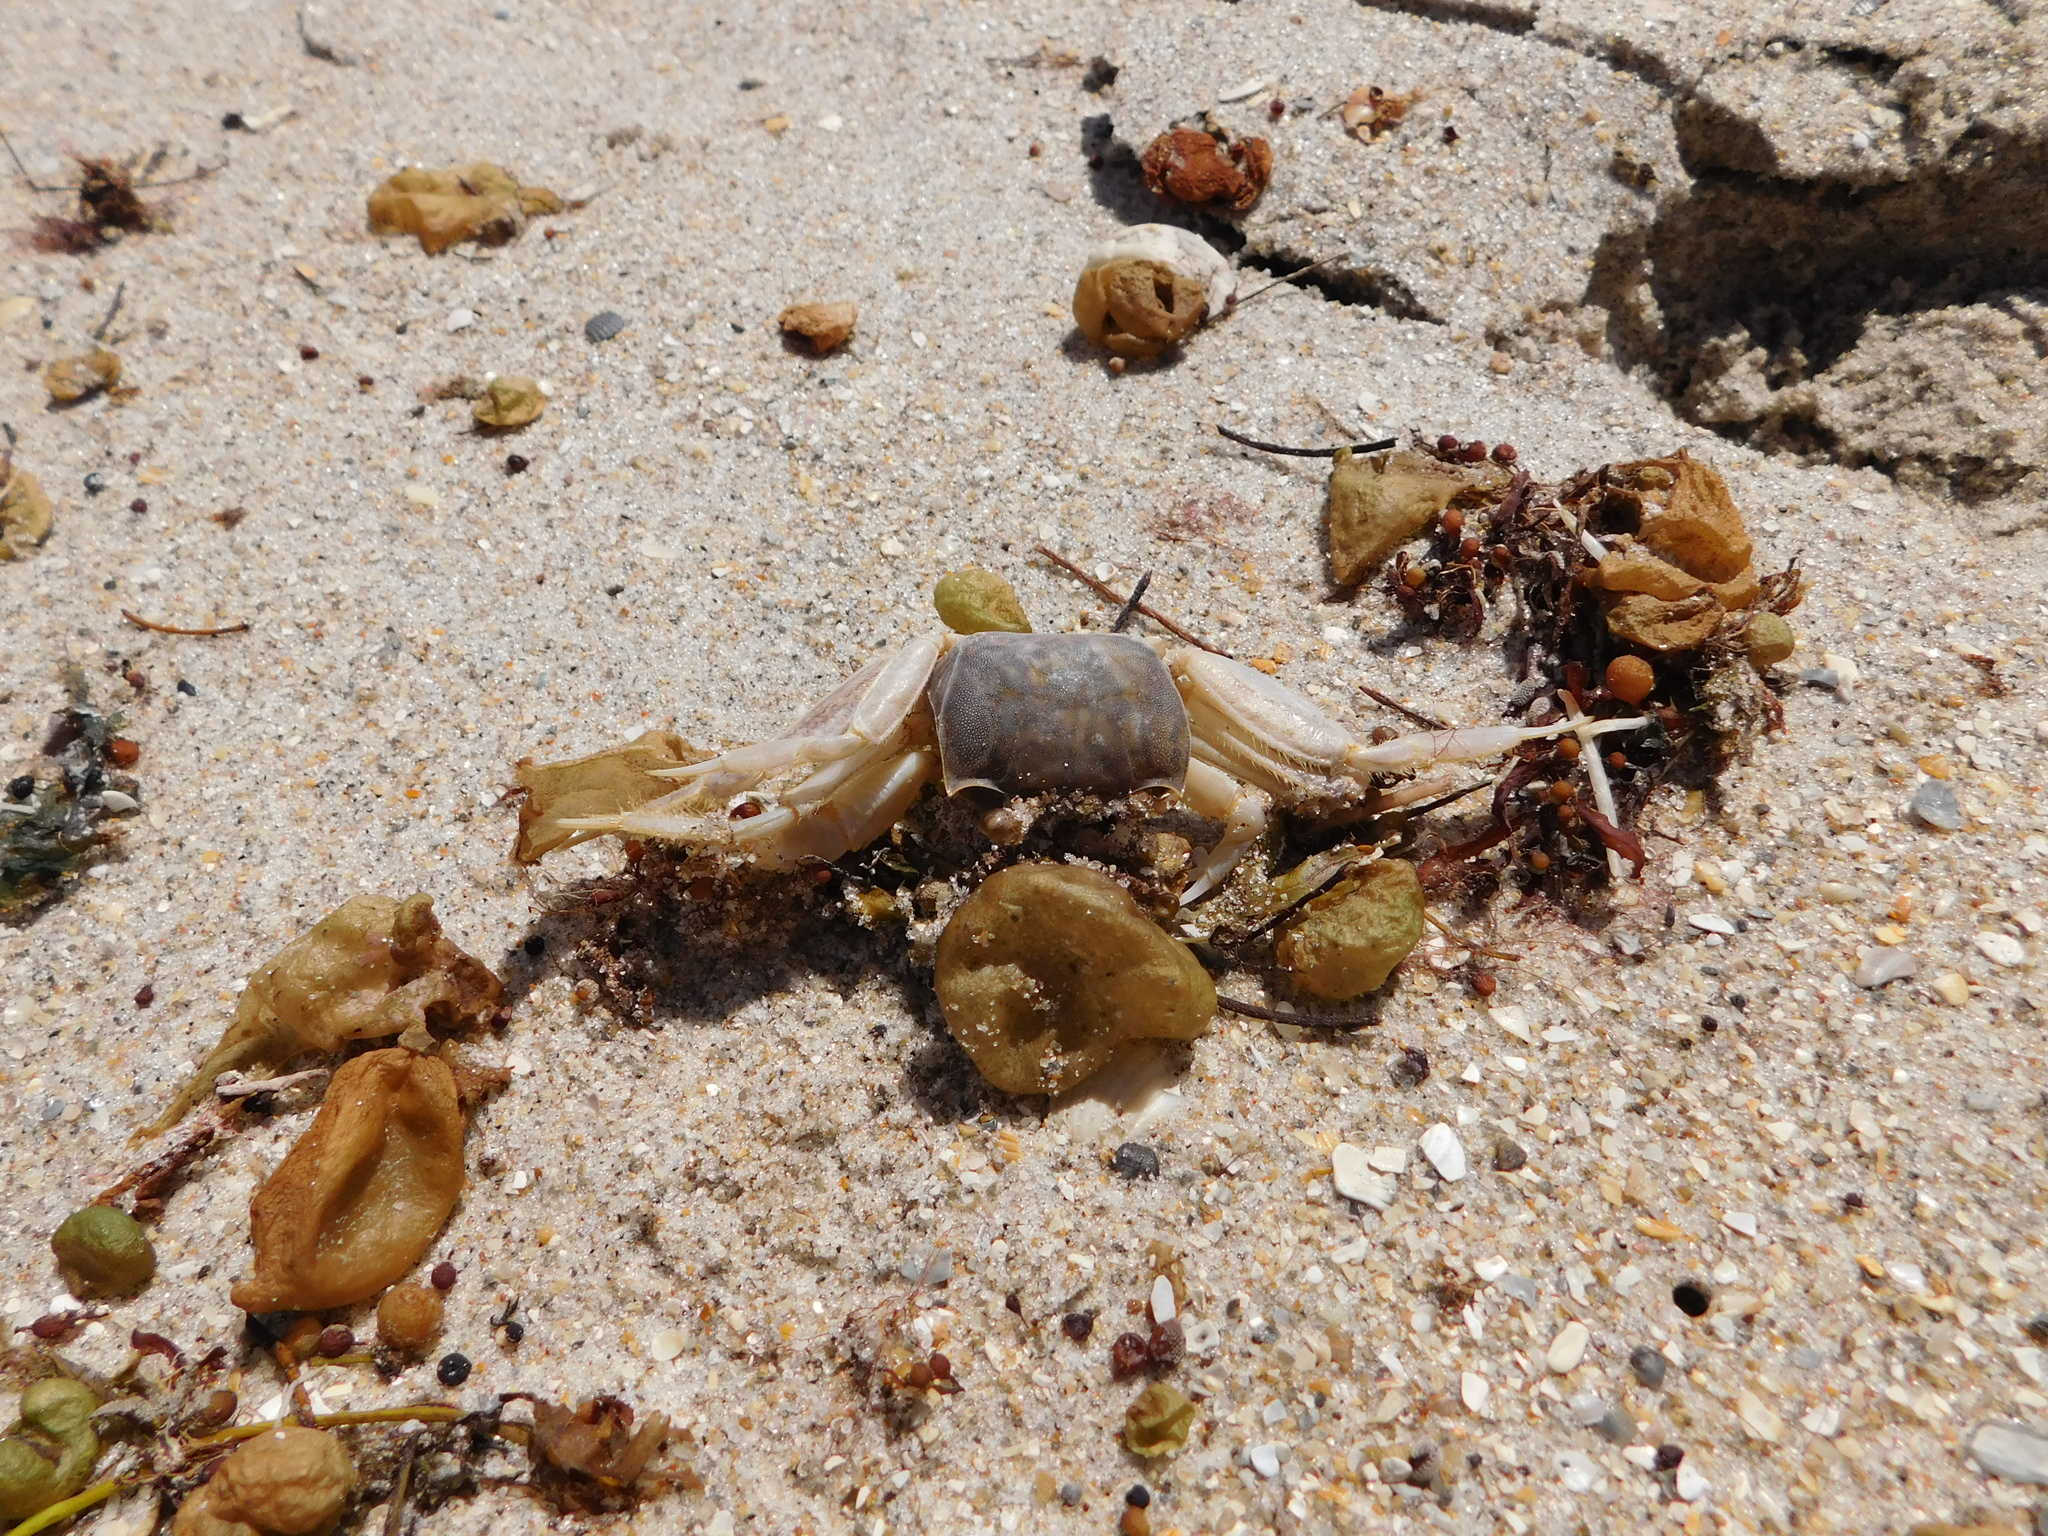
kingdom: Animalia
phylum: Arthropoda
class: Malacostraca
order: Decapoda
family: Ocypodidae
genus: Ocypode
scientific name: Ocypode quadrata
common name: Ghost crab
